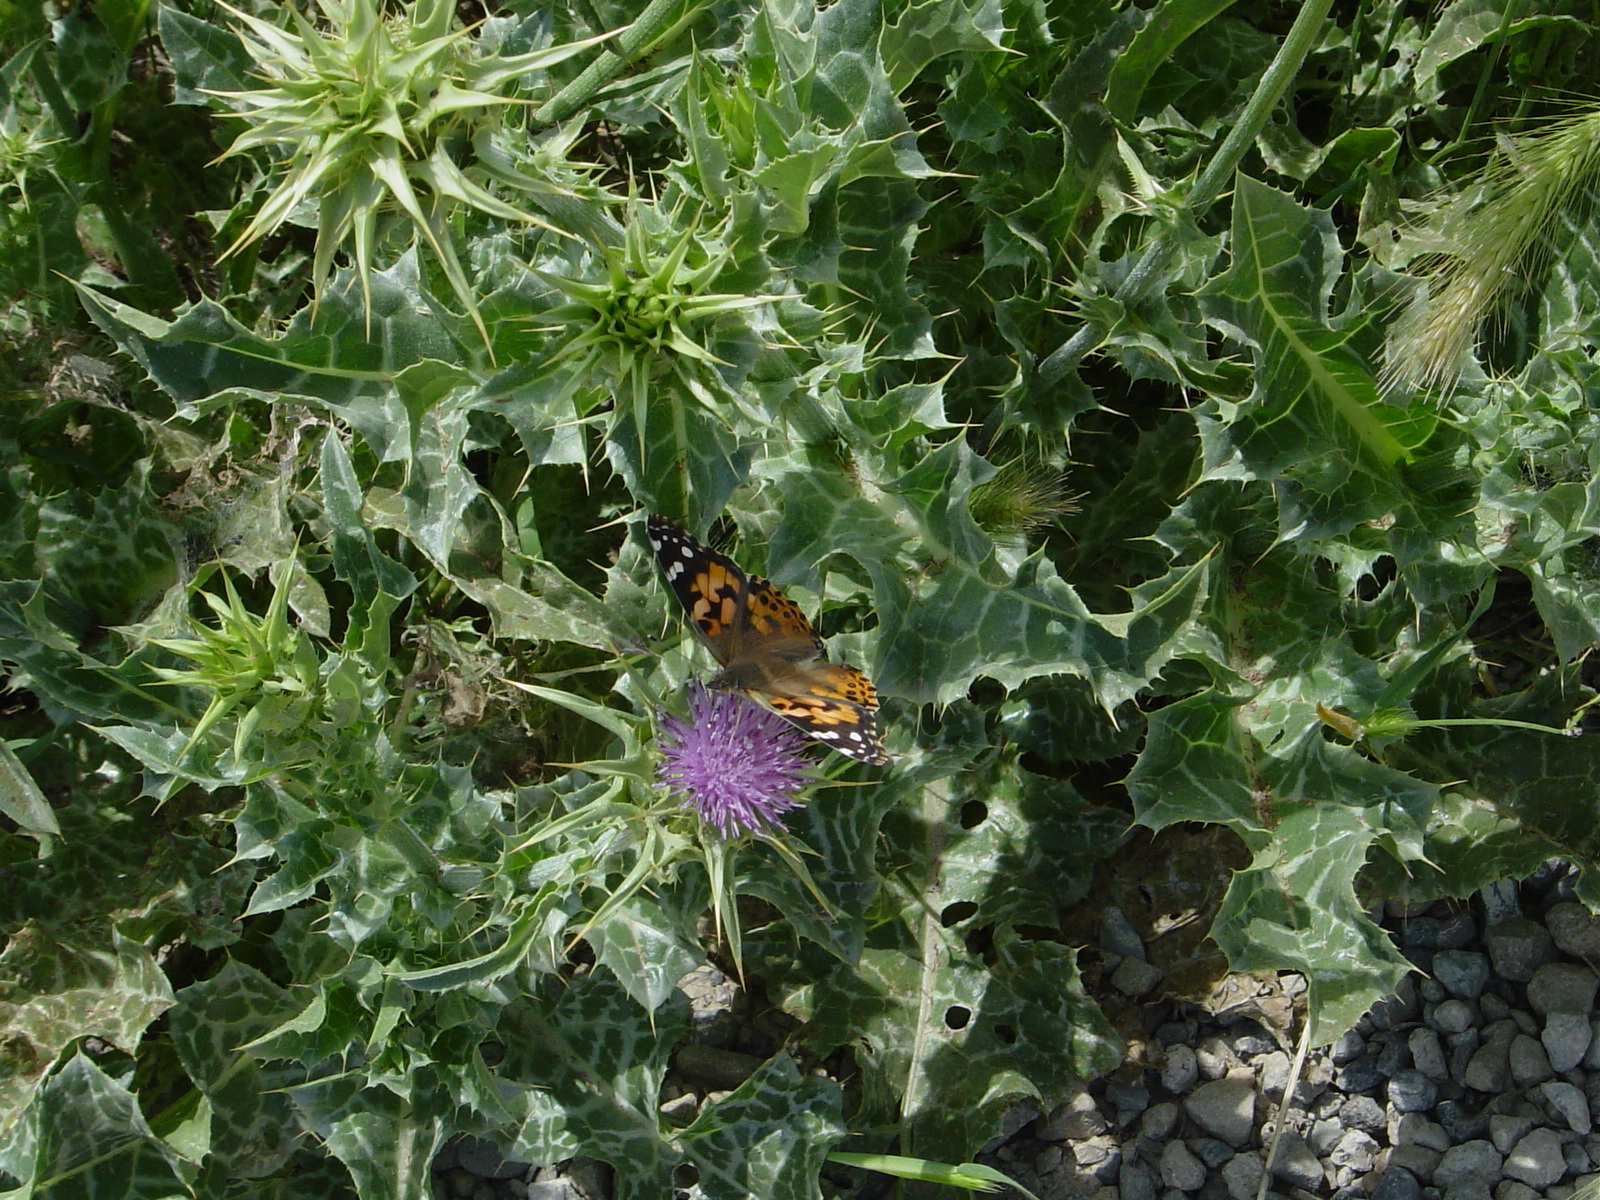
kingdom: Animalia
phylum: Arthropoda
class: Insecta
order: Lepidoptera
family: Nymphalidae
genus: Vanessa
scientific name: Vanessa cardui
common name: Painted lady
